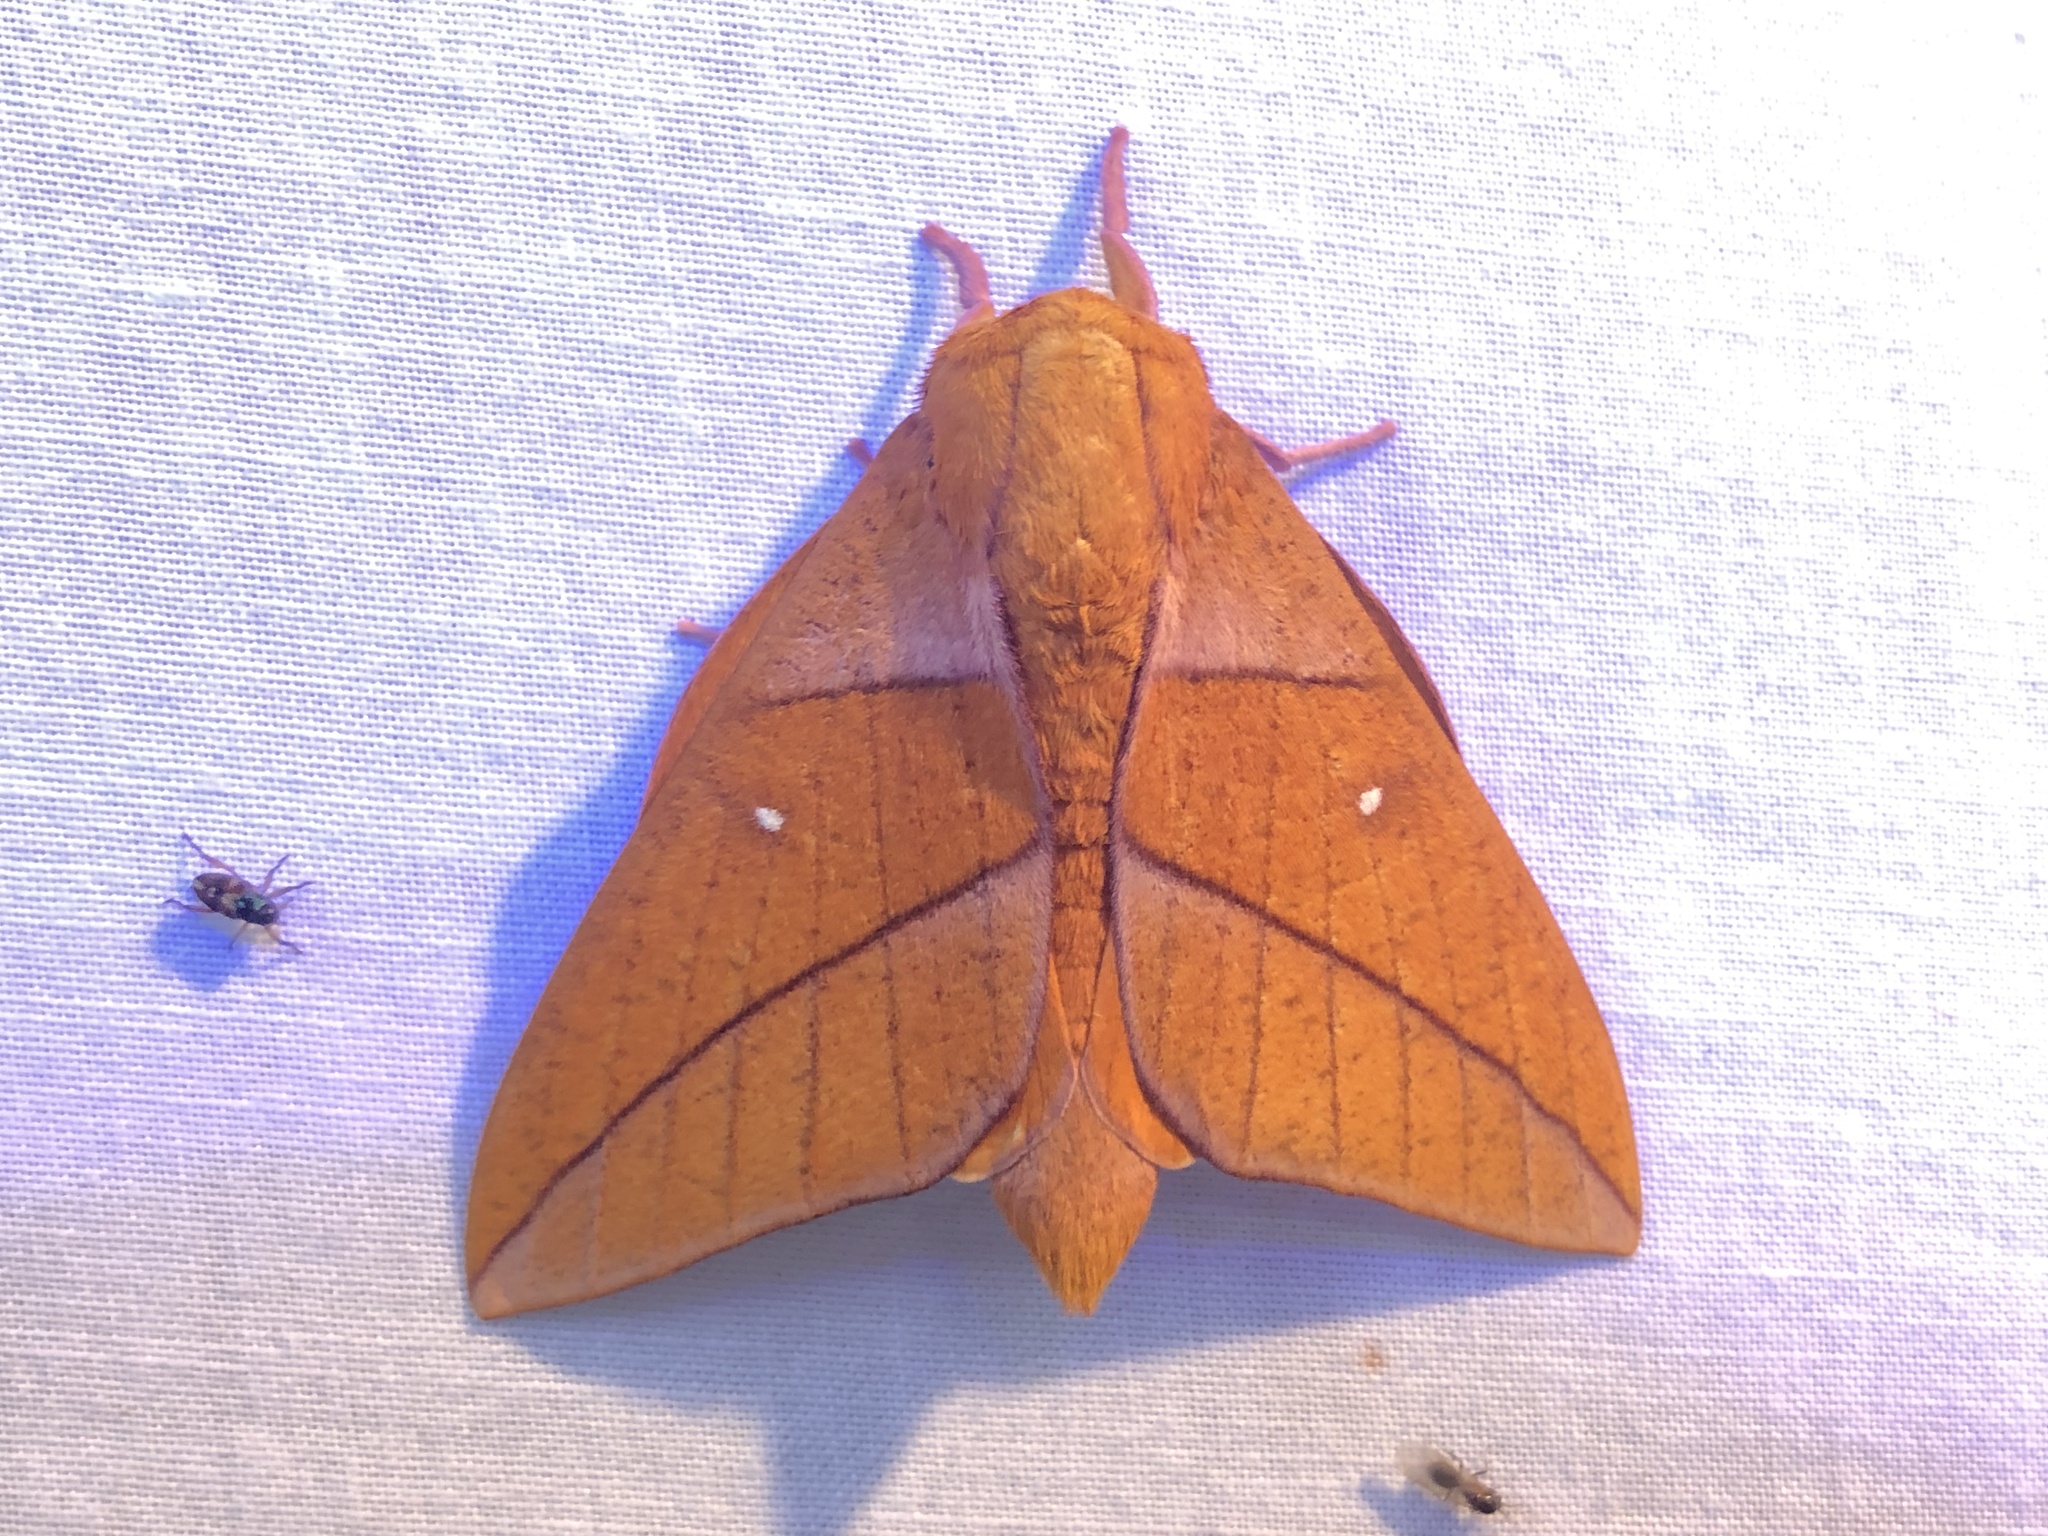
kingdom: Animalia
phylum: Arthropoda
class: Insecta
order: Lepidoptera
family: Saturniidae
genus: Adeloneivaia
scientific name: Adeloneivaia jason
